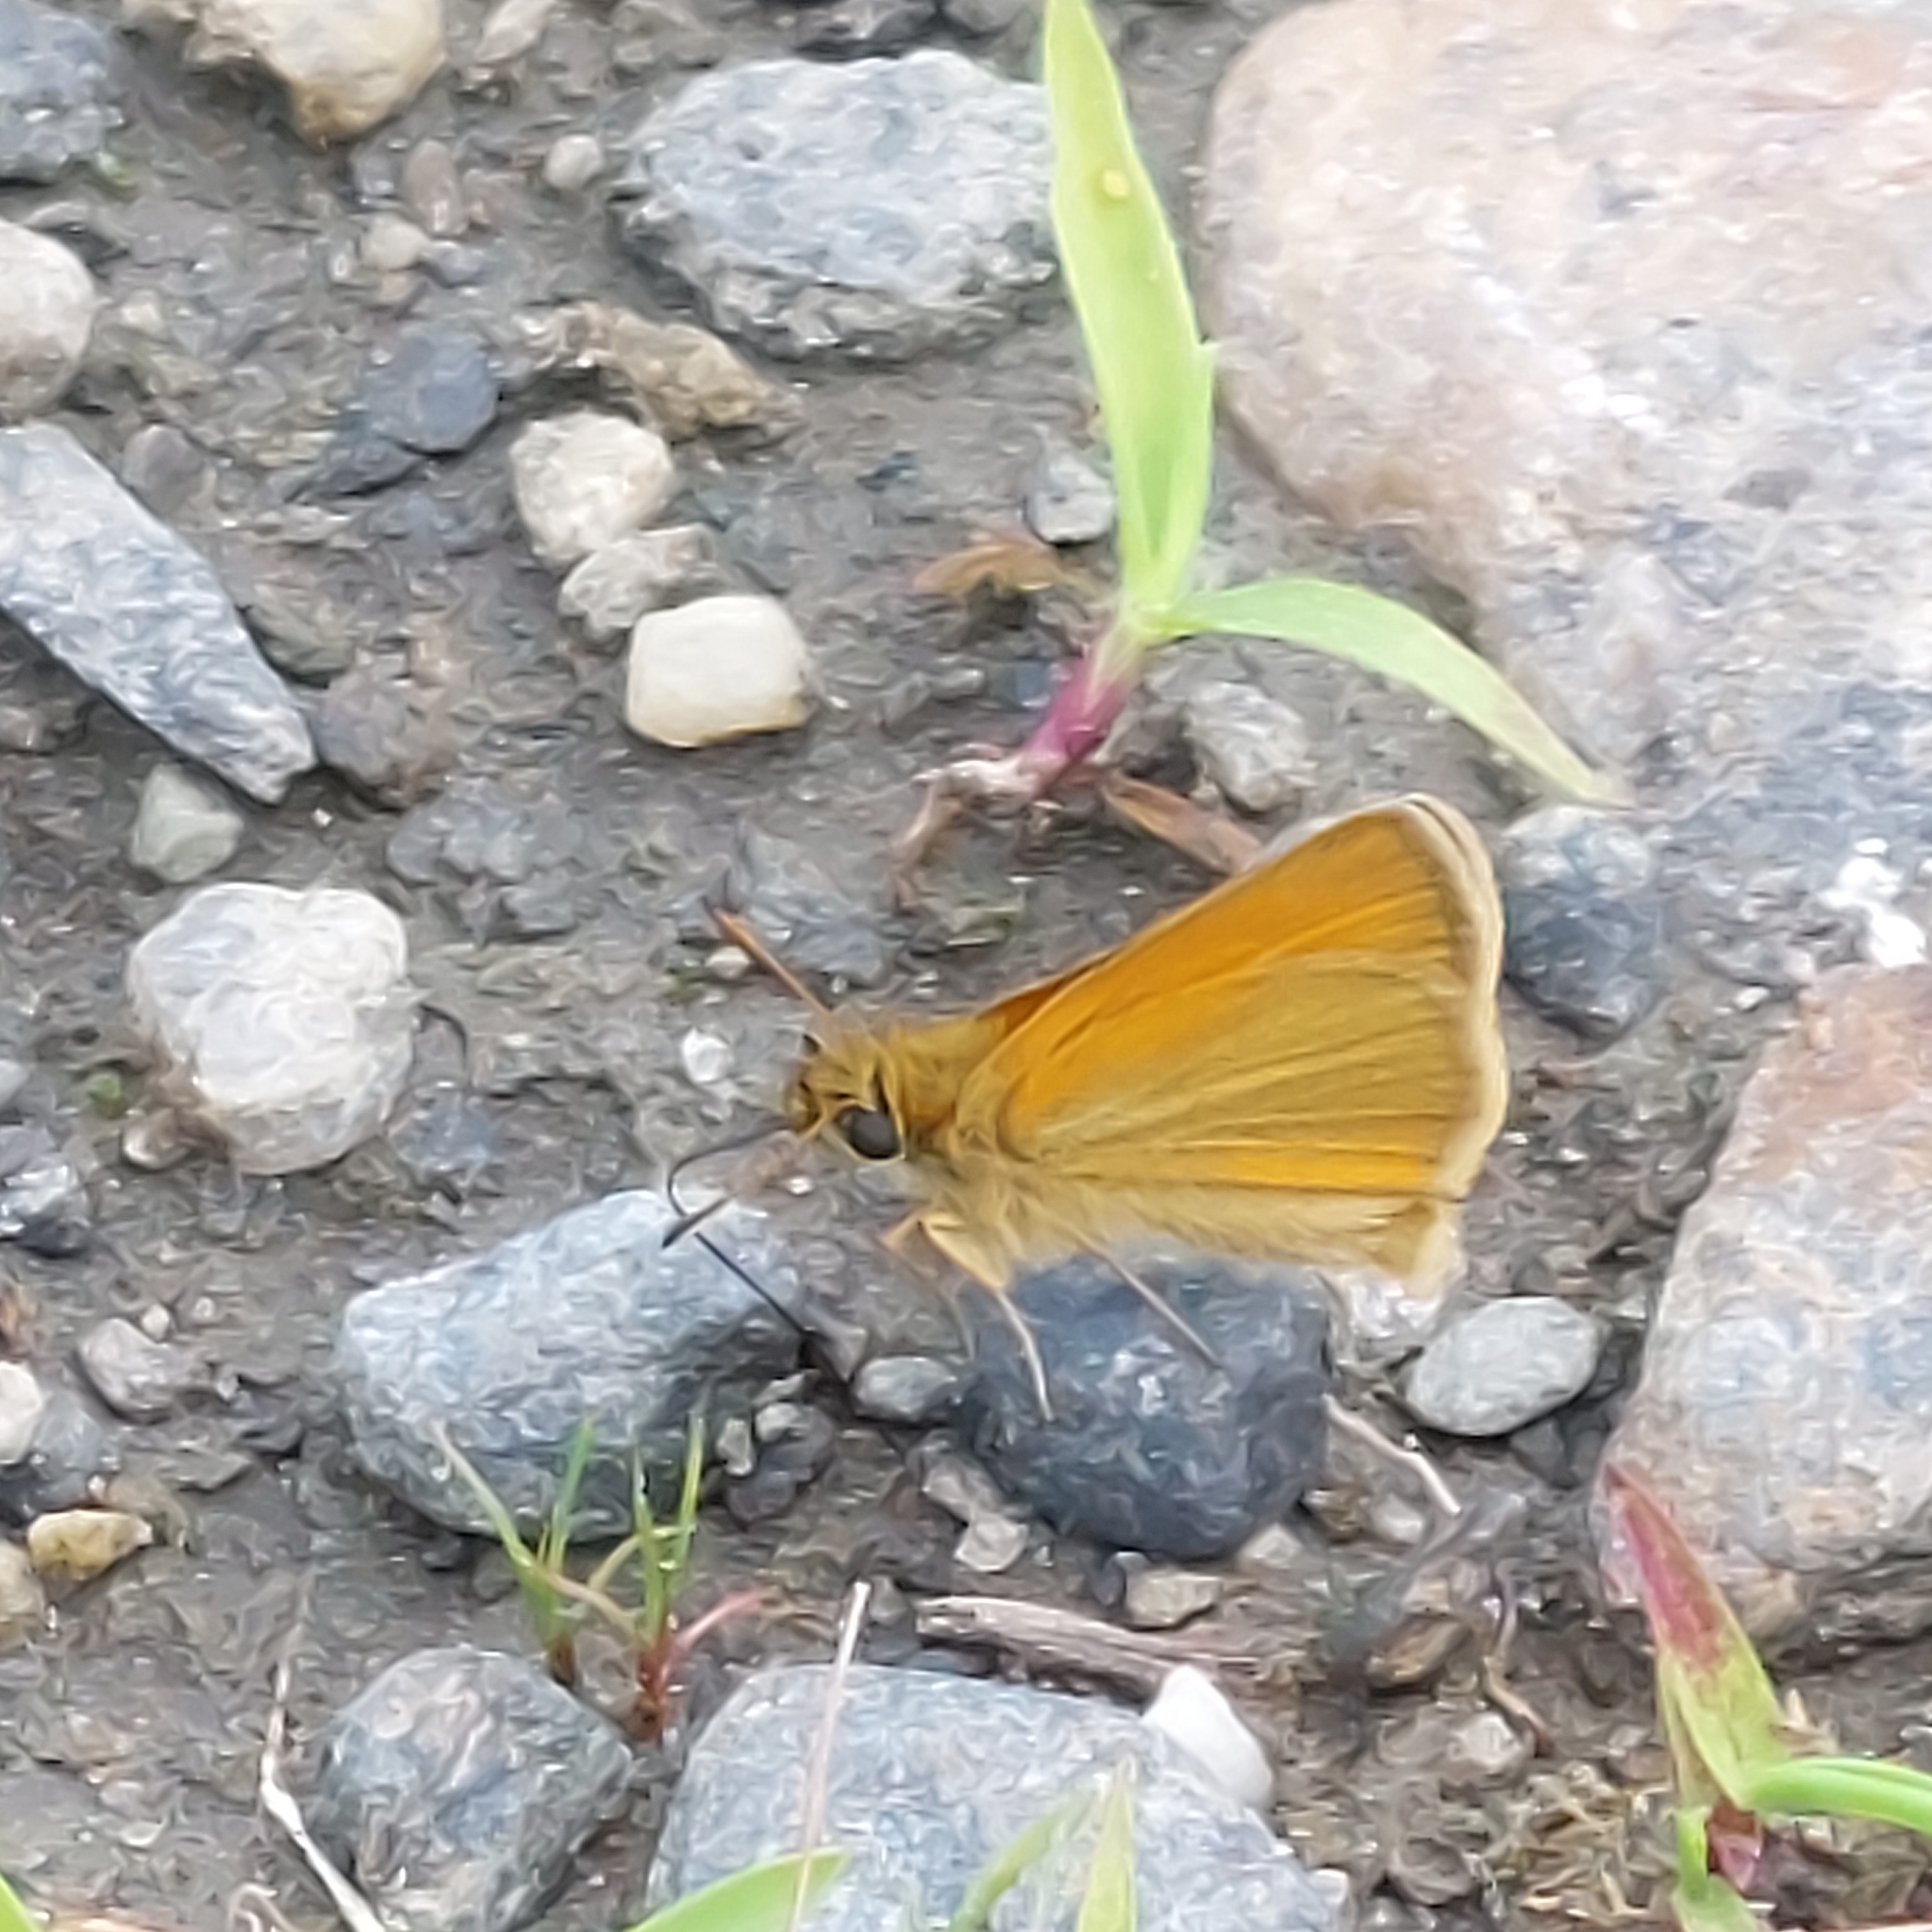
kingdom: Animalia
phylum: Arthropoda
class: Insecta
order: Lepidoptera
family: Hesperiidae
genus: Thymelicus
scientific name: Thymelicus lineola
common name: Essex skipper
